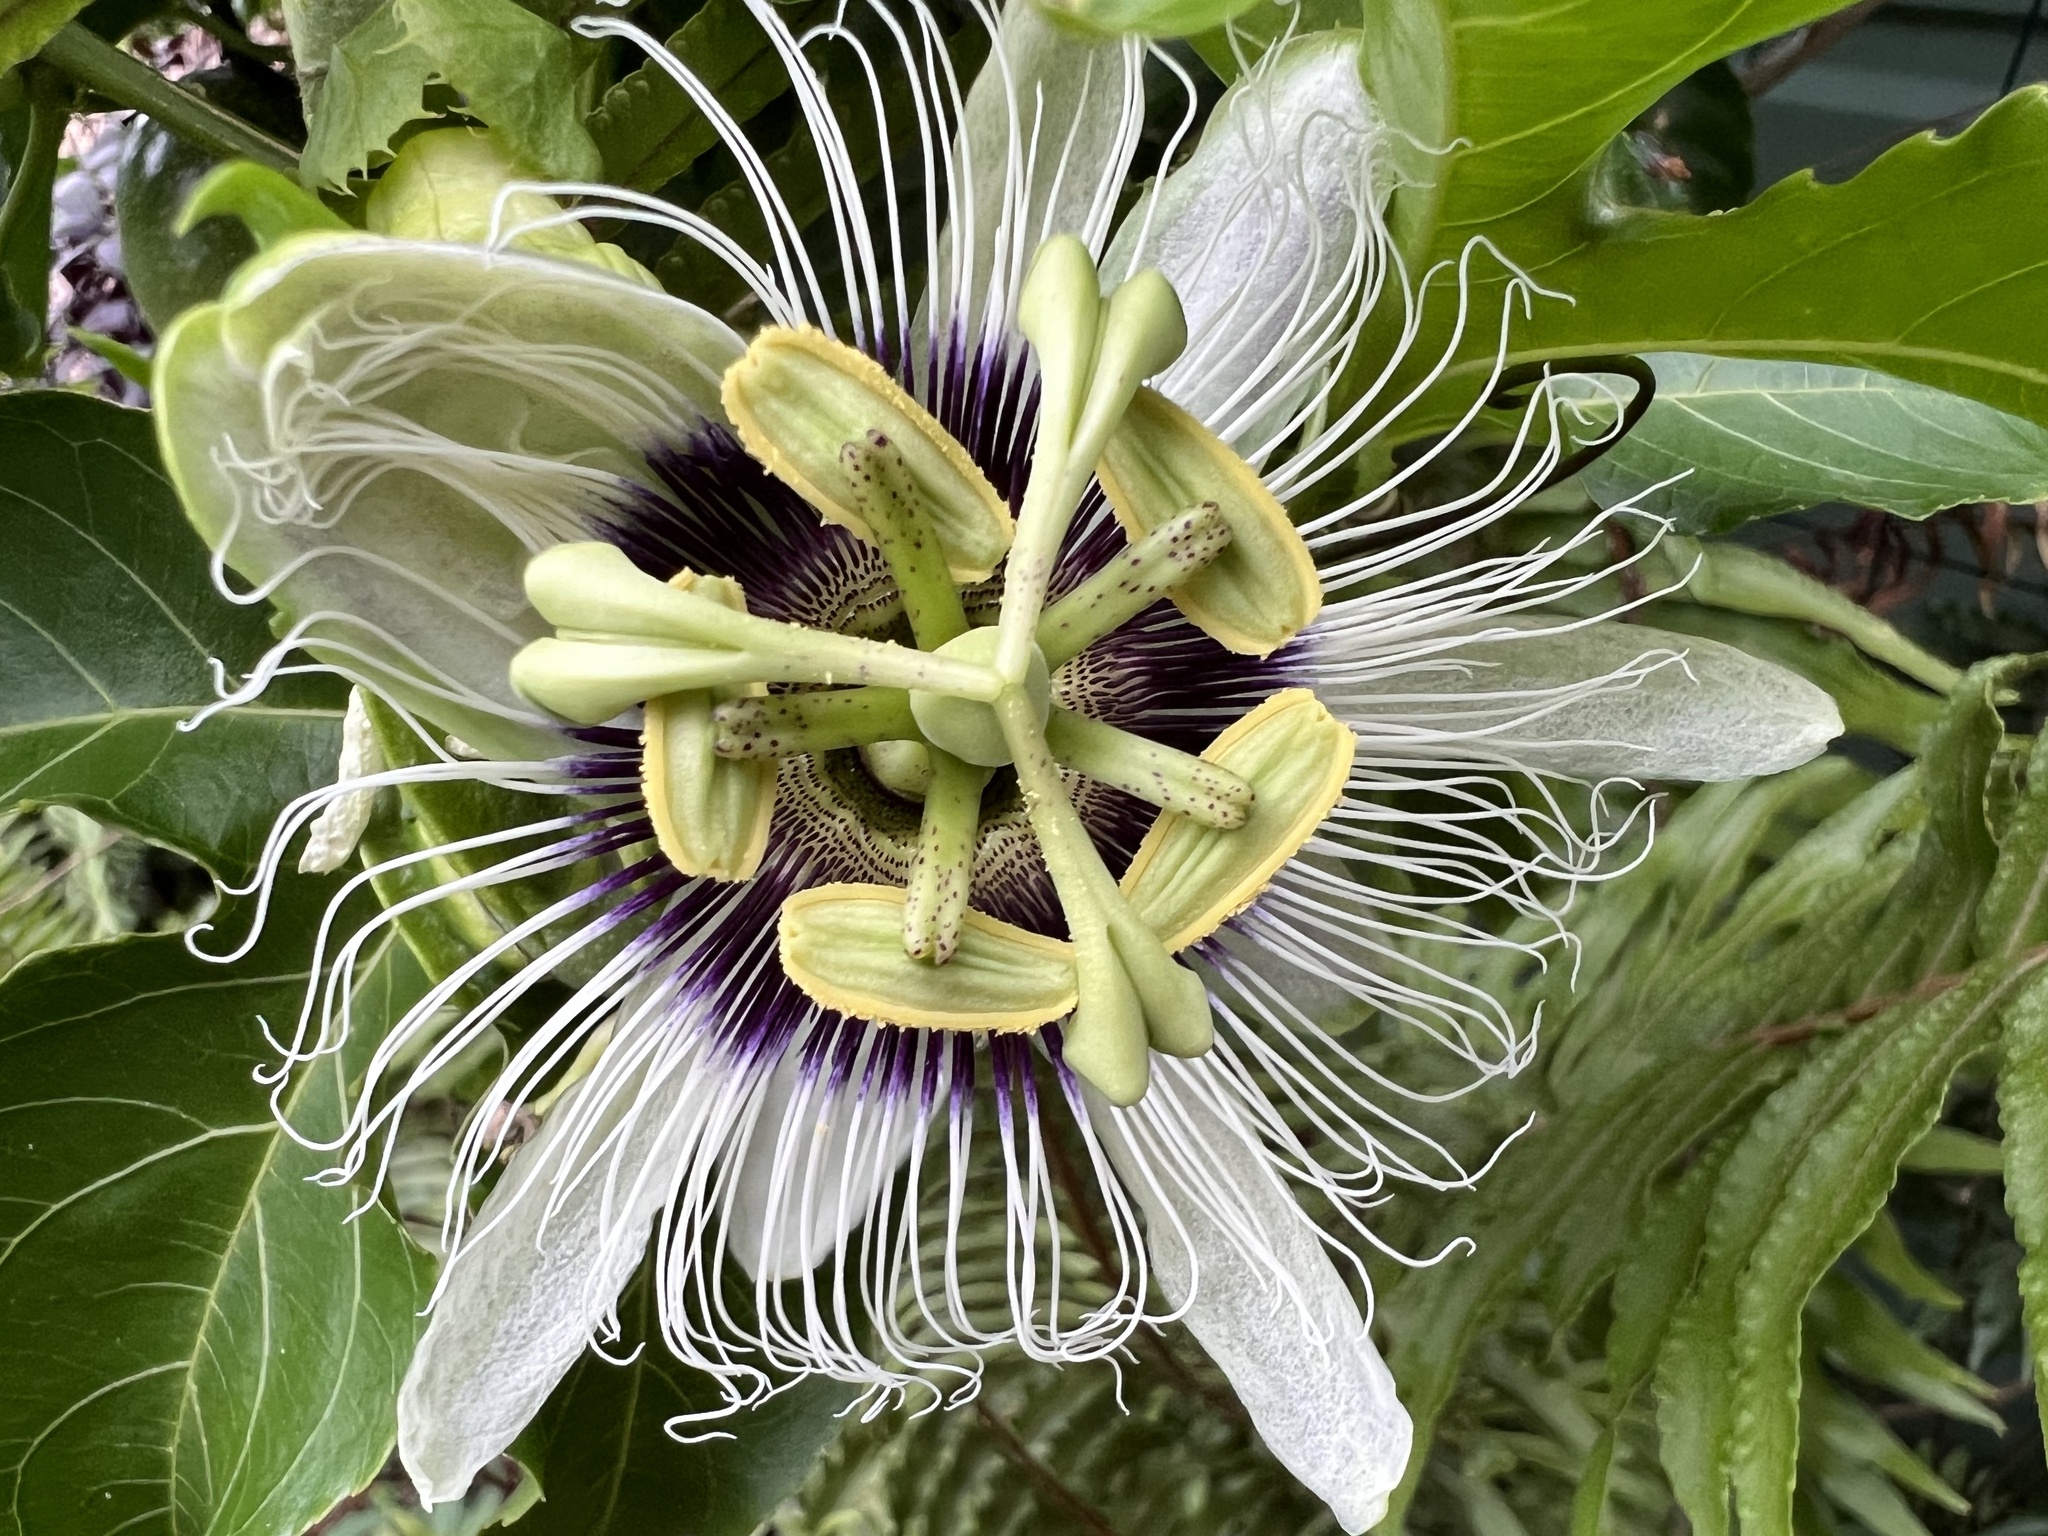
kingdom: Plantae
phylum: Tracheophyta
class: Magnoliopsida
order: Malpighiales
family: Passifloraceae
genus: Passiflora
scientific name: Passiflora edulis
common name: Purple granadilla
